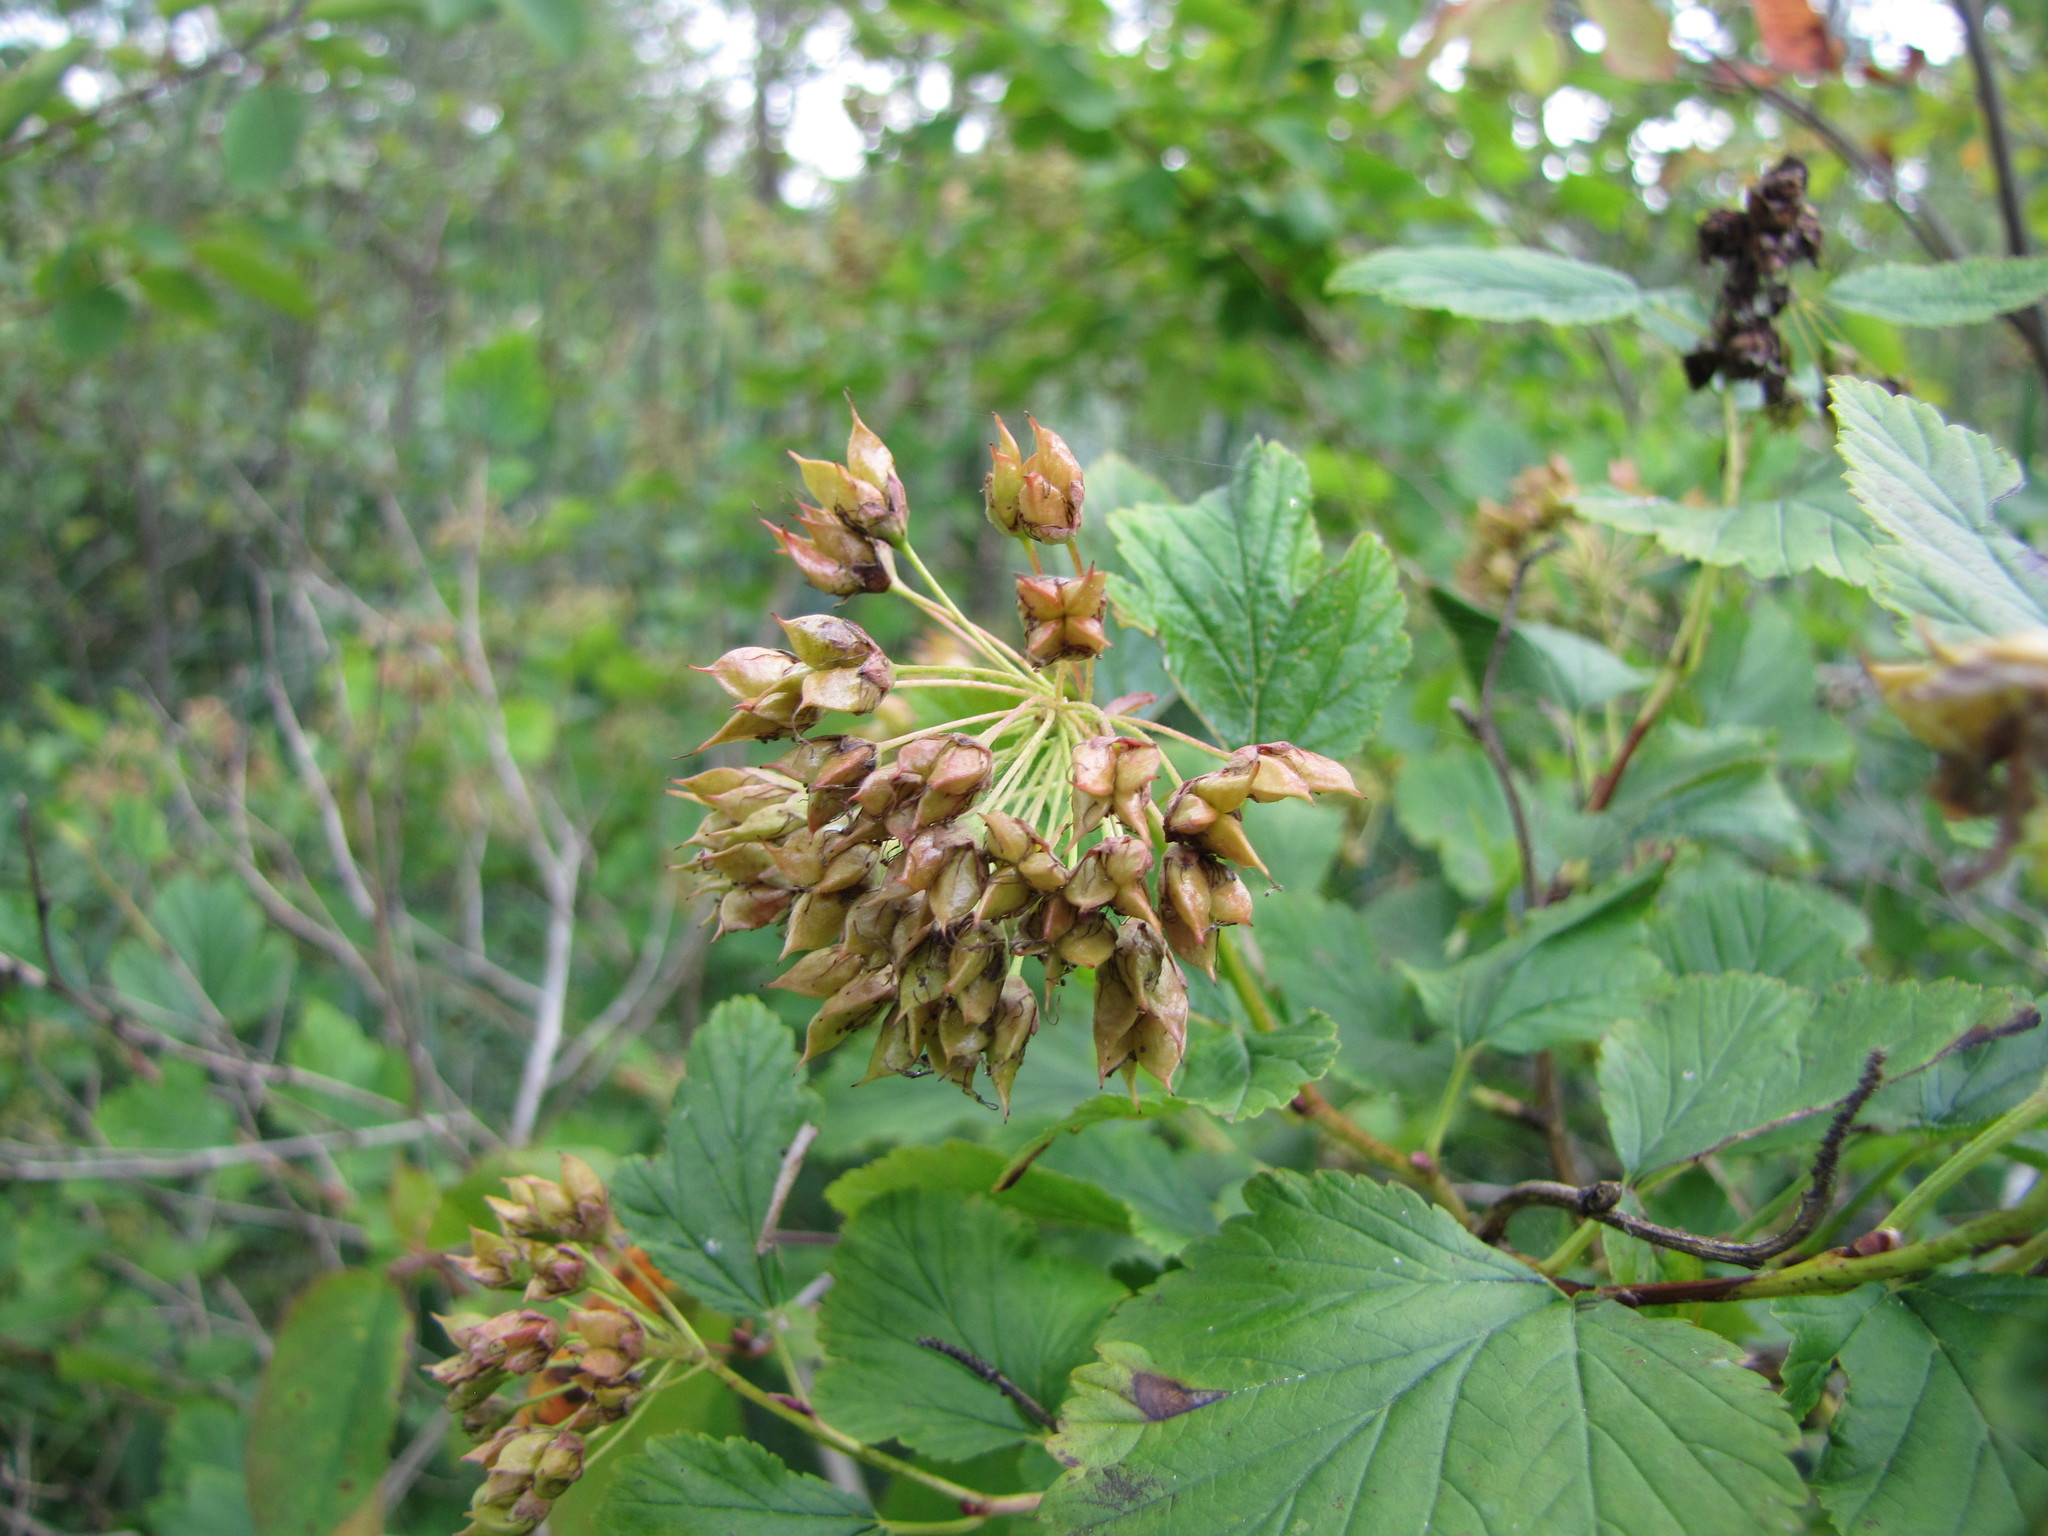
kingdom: Plantae
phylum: Tracheophyta
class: Magnoliopsida
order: Rosales
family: Rosaceae
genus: Physocarpus
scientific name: Physocarpus opulifolius
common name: Ninebark
